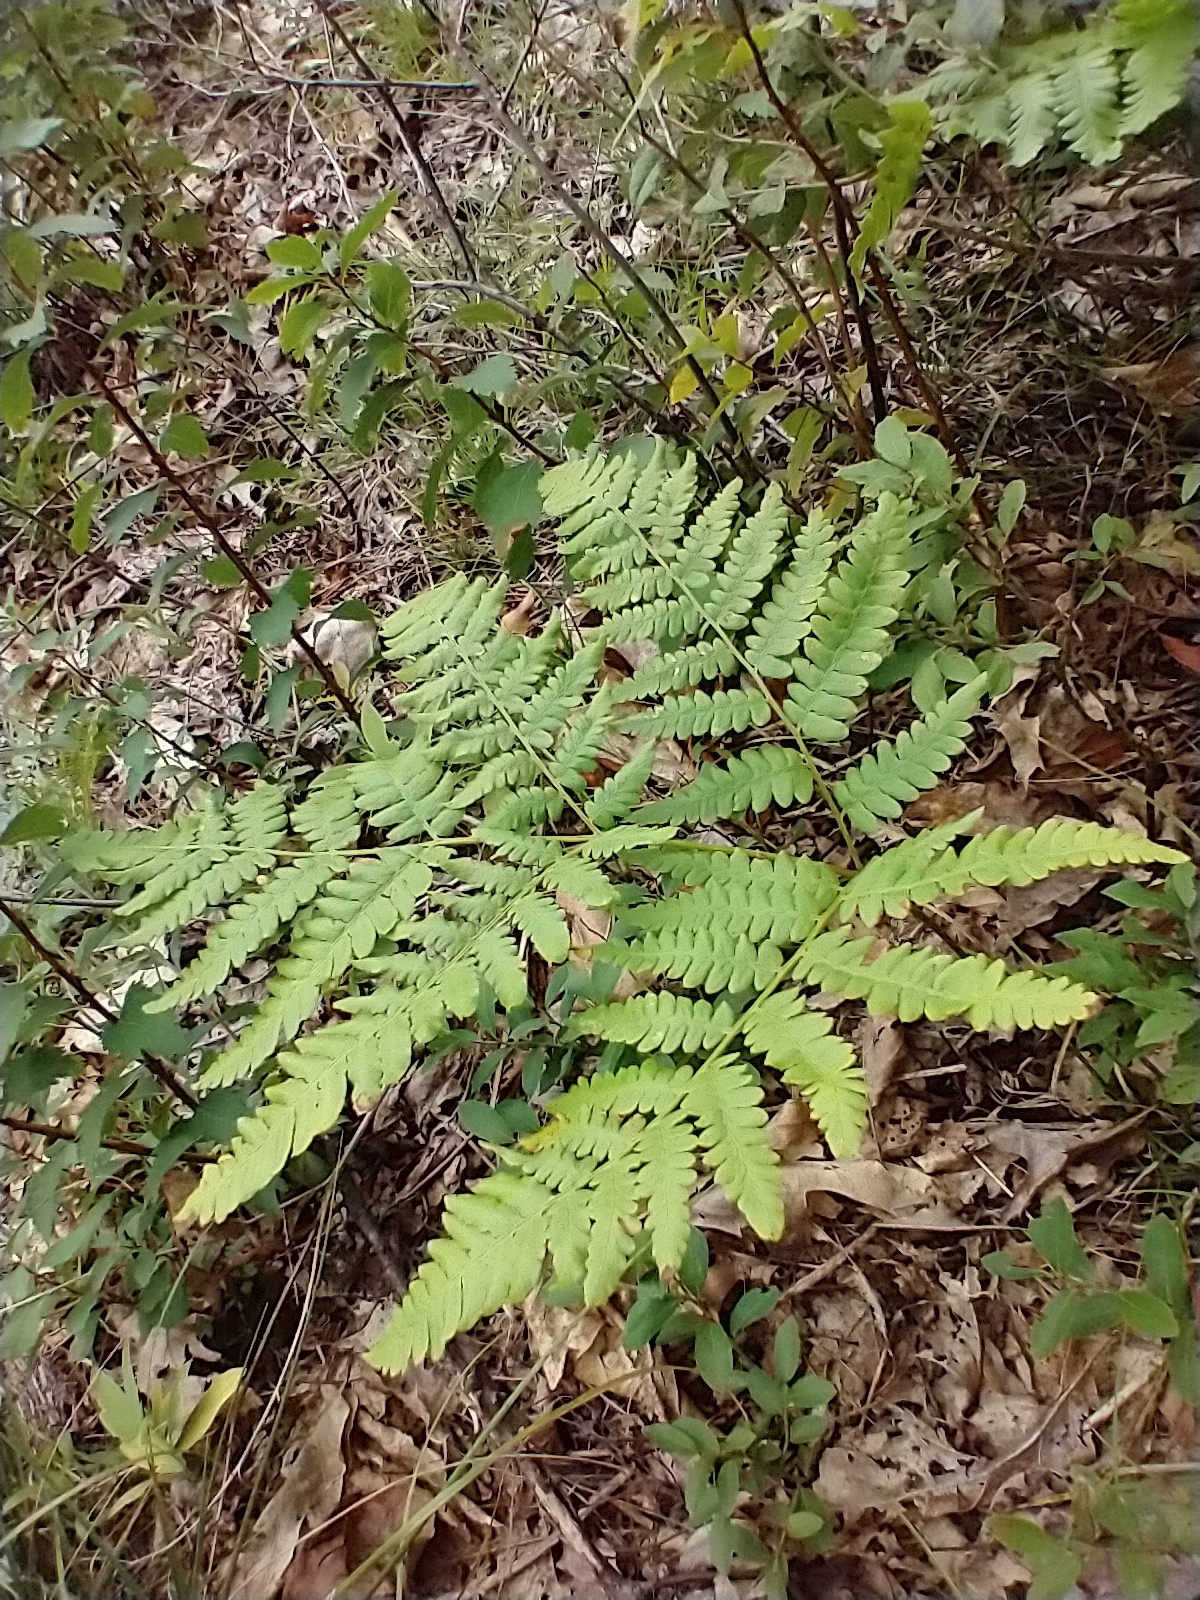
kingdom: Plantae
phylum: Tracheophyta
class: Polypodiopsida
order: Polypodiales
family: Dennstaedtiaceae
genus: Pteridium
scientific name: Pteridium aquilinum
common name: Bracken
